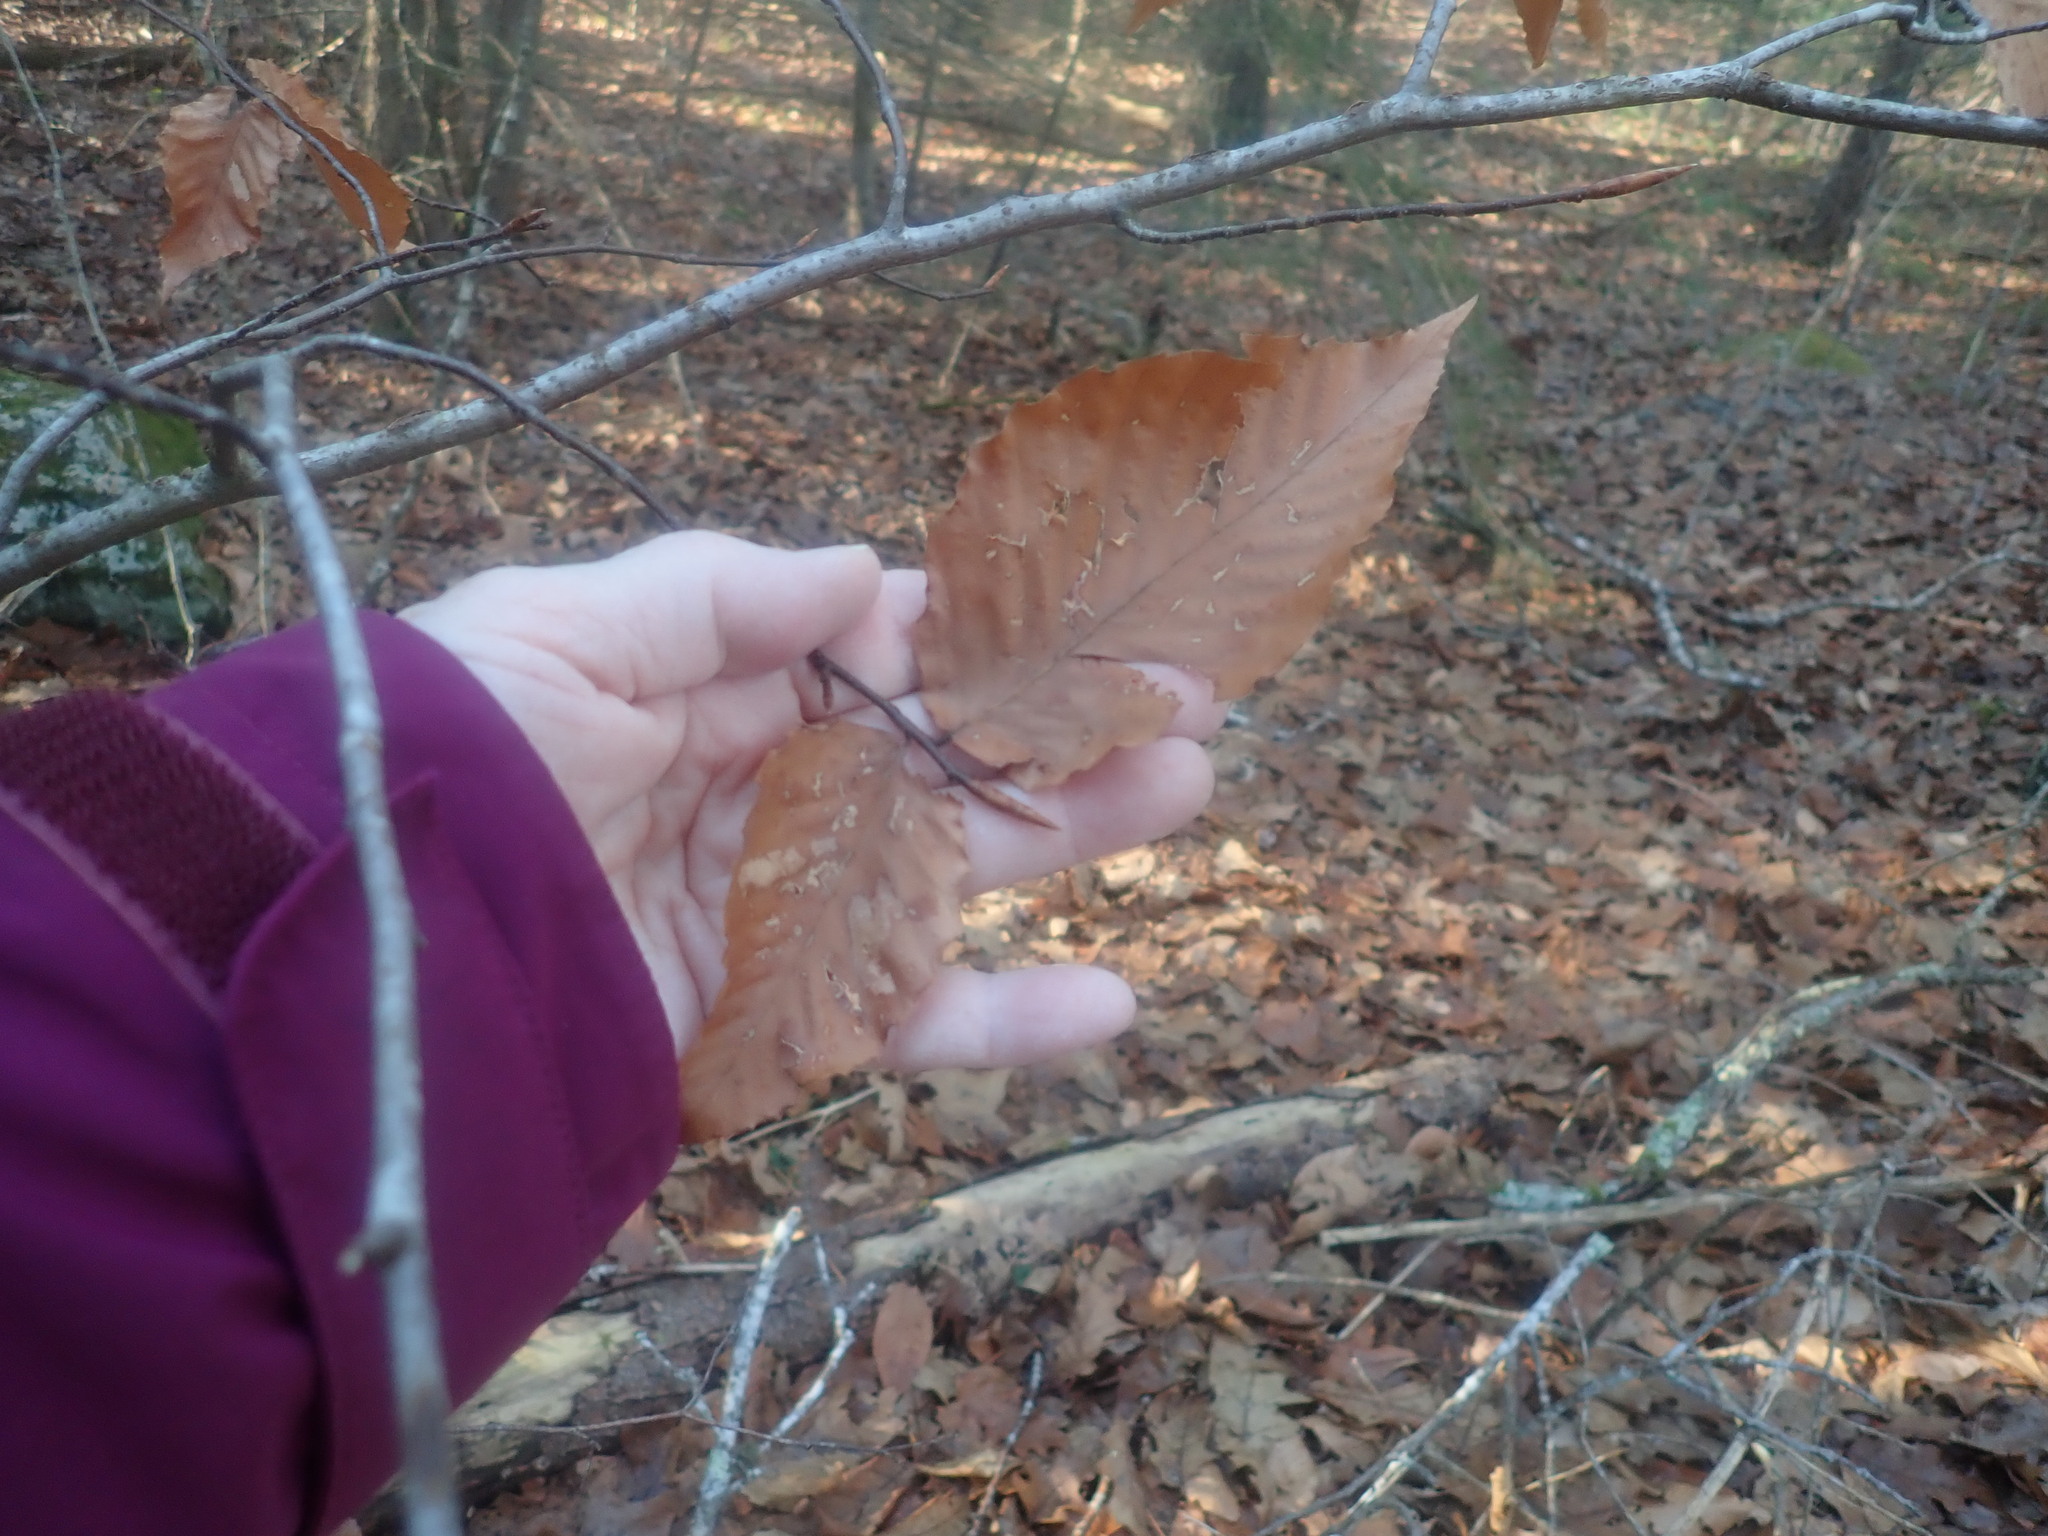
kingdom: Plantae
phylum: Tracheophyta
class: Magnoliopsida
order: Fagales
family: Fagaceae
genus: Fagus
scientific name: Fagus grandifolia
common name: American beech
